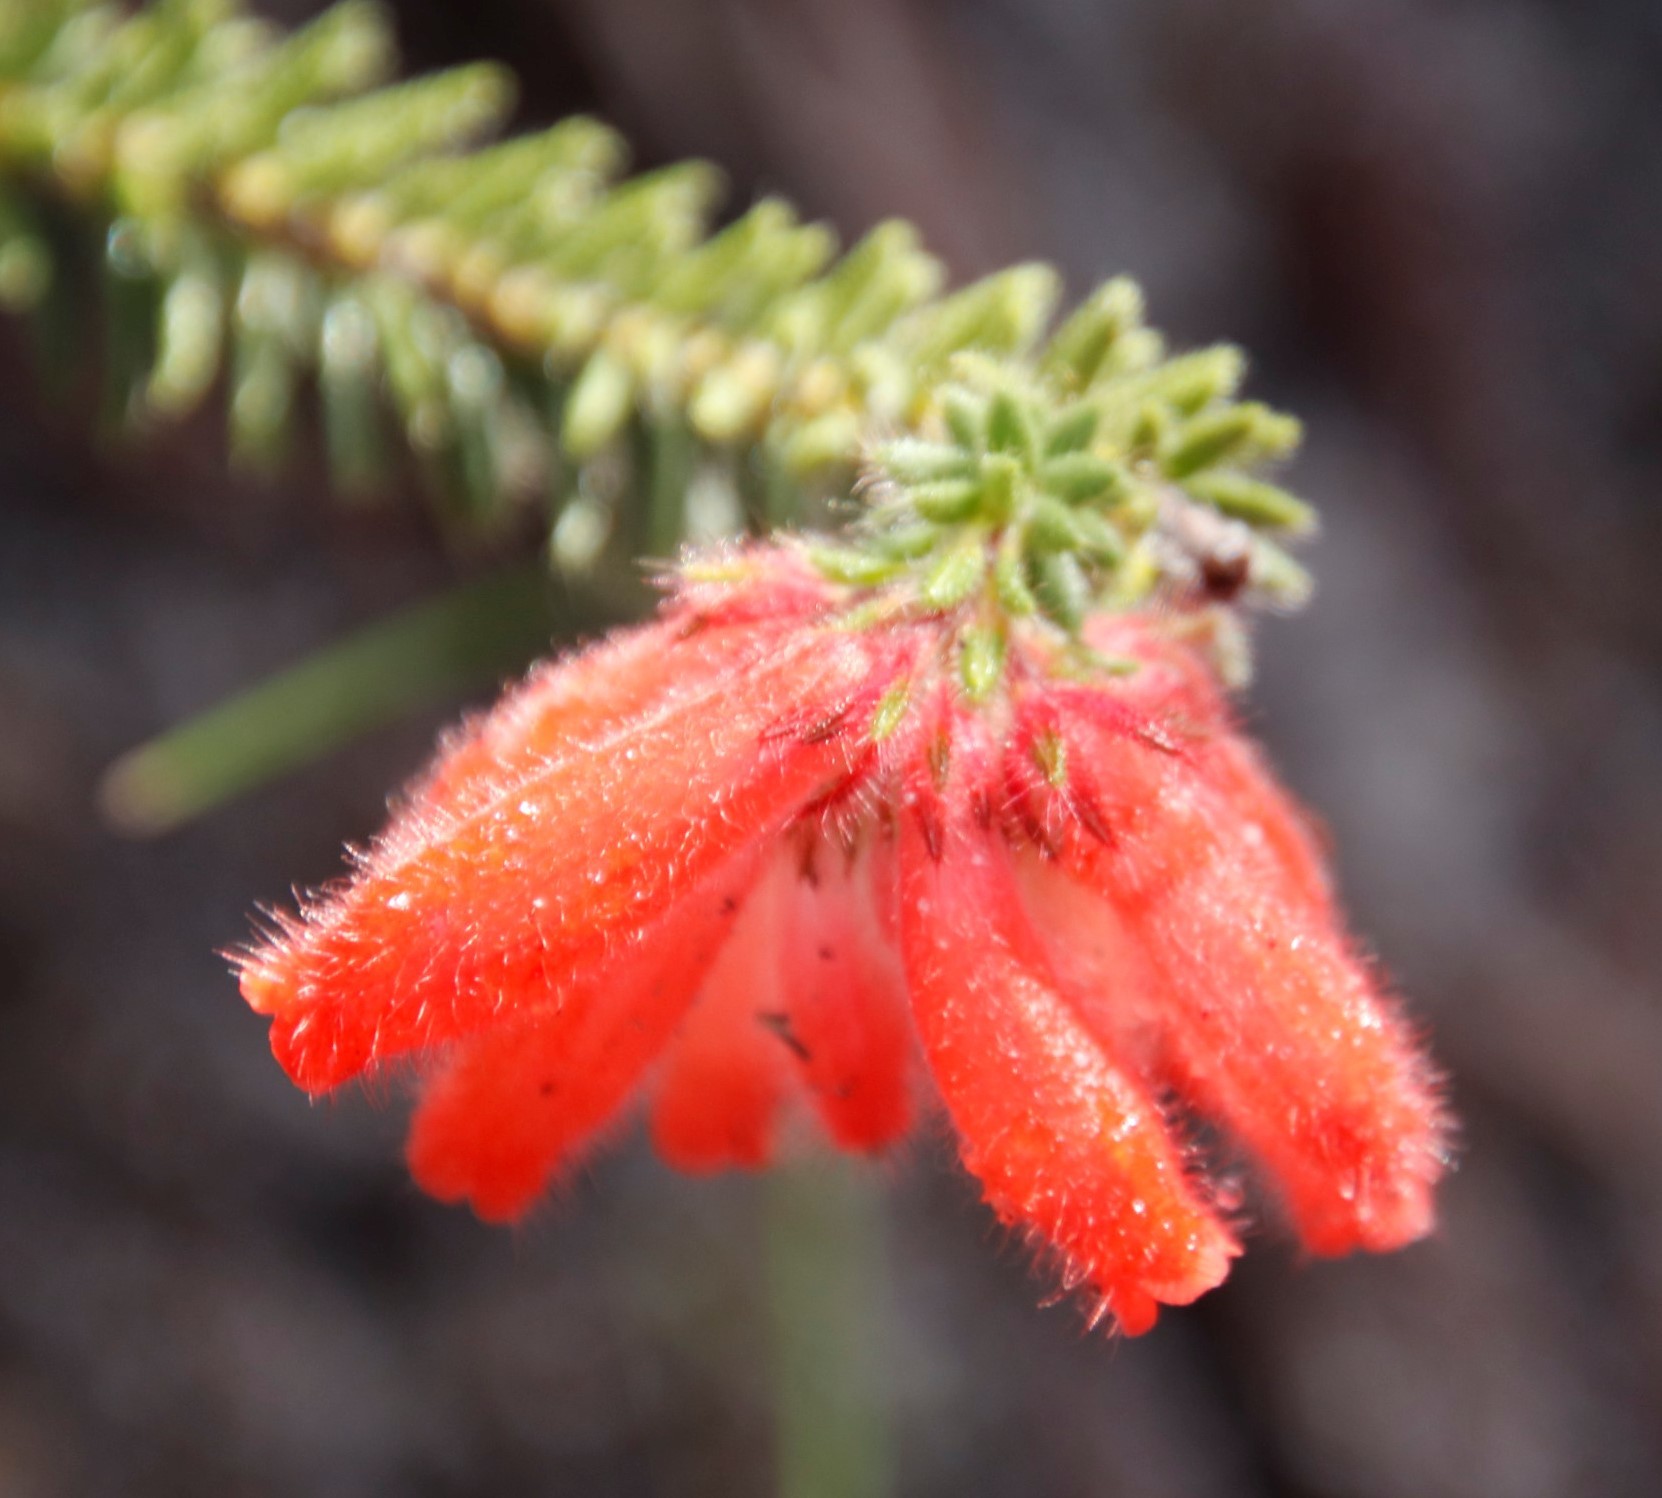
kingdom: Plantae
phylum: Tracheophyta
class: Magnoliopsida
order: Ericales
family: Ericaceae
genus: Erica
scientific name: Erica cerinthoides
